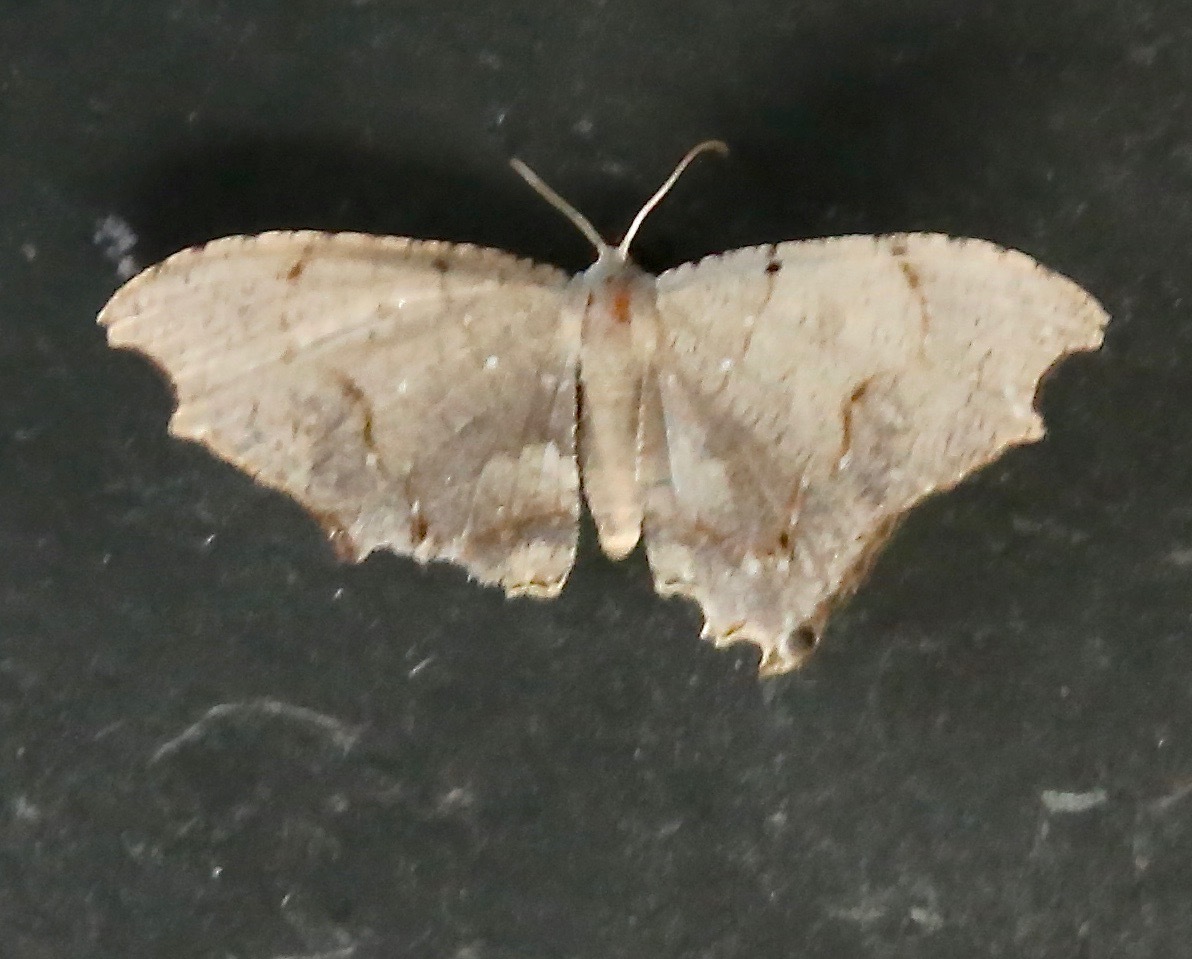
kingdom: Animalia
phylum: Arthropoda
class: Insecta
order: Lepidoptera
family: Uraniidae
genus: Trotorhombia
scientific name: Trotorhombia metachromata
